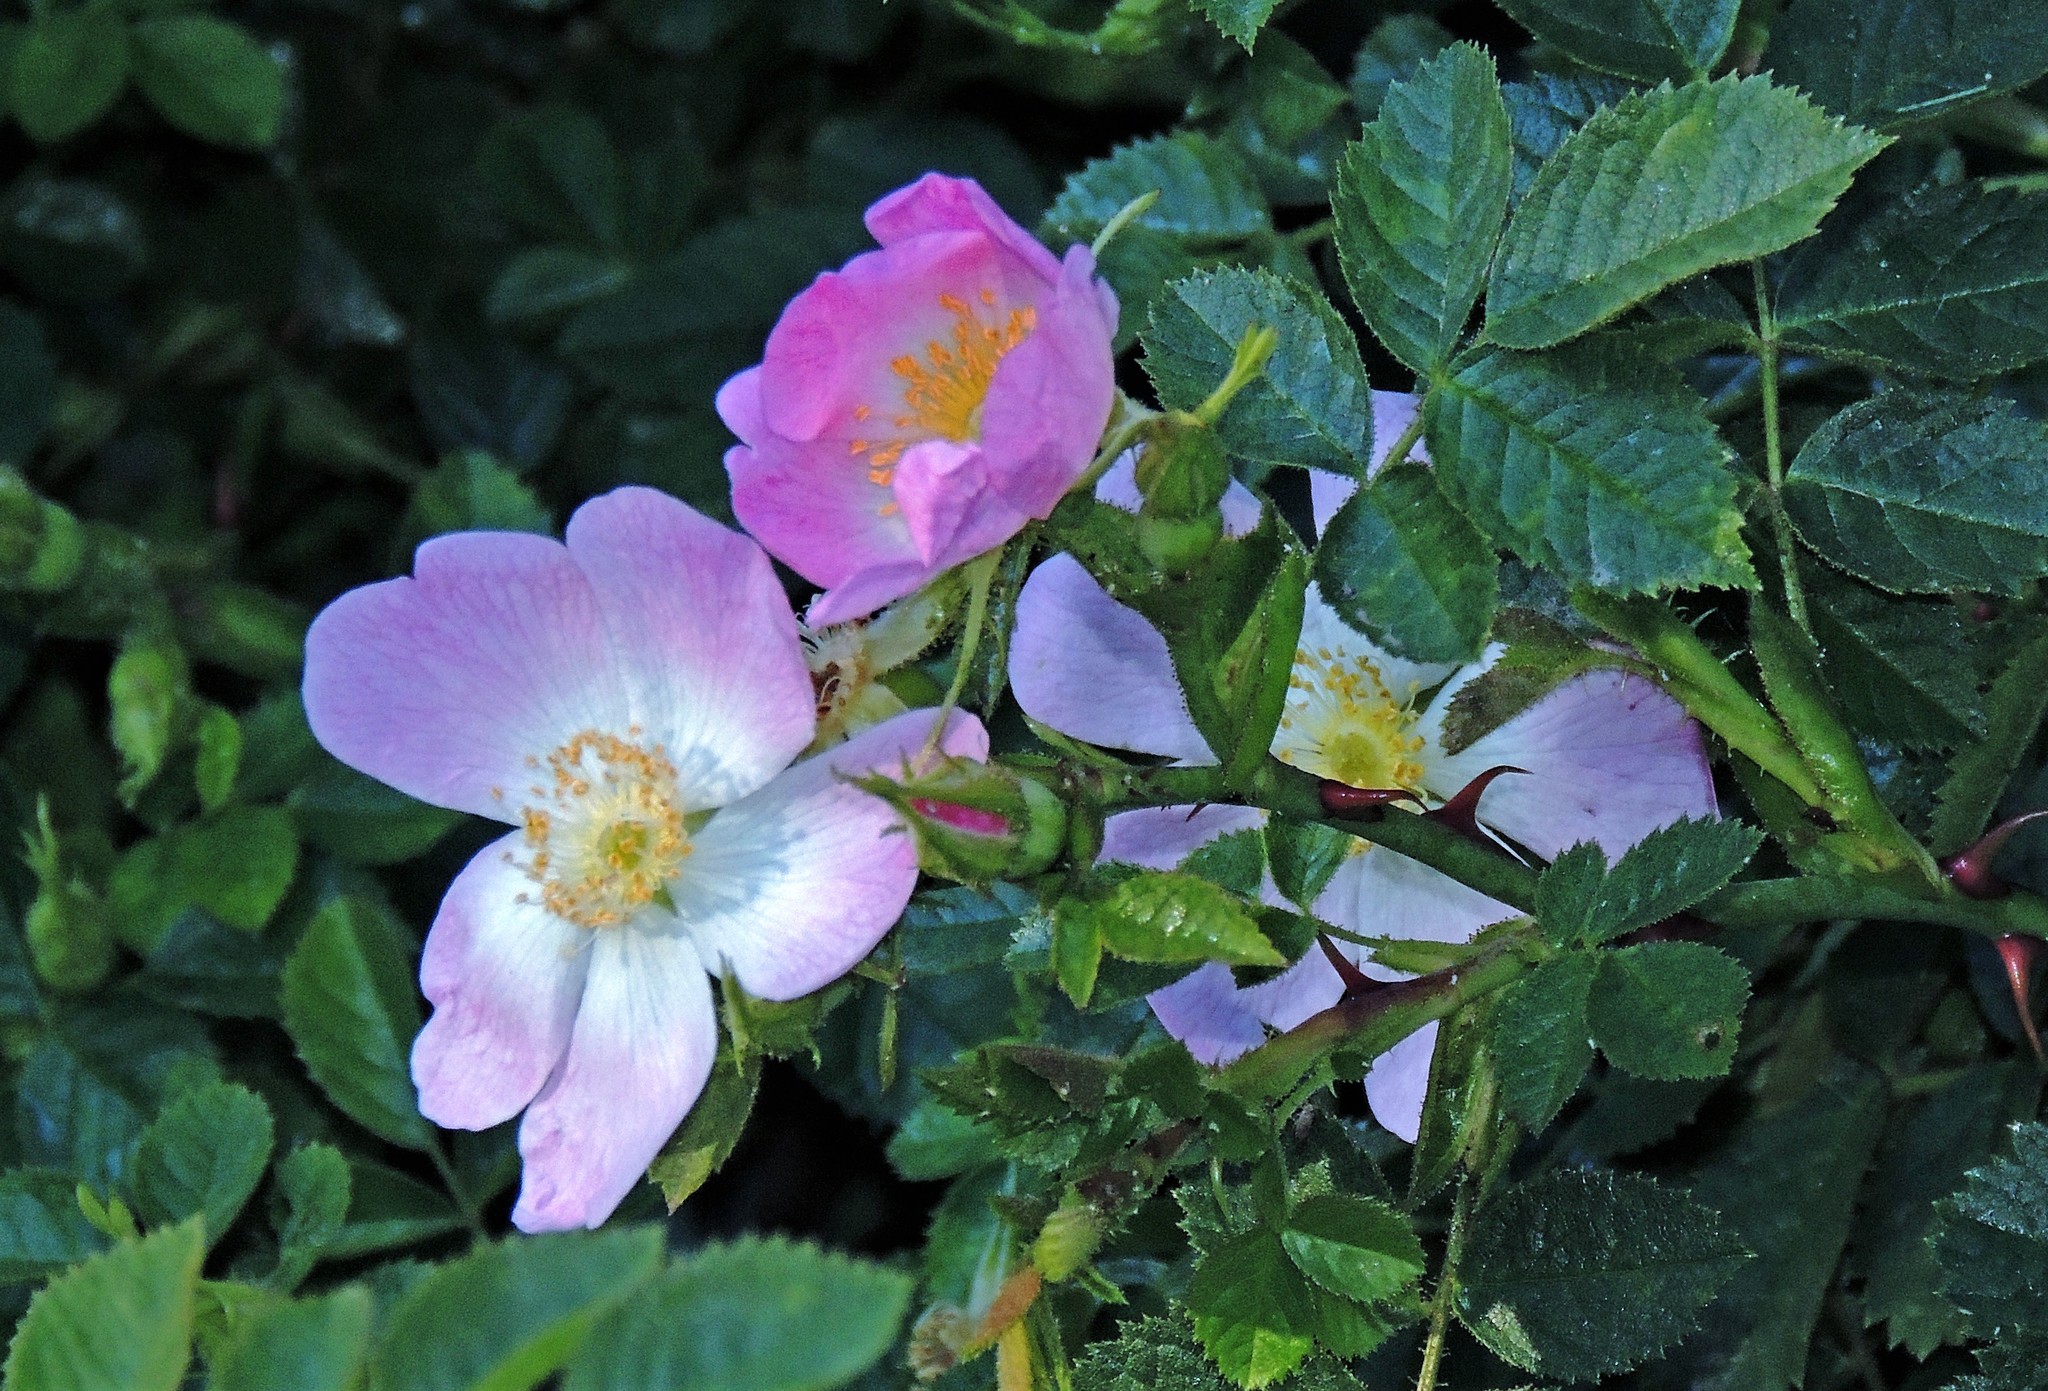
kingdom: Plantae
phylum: Tracheophyta
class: Magnoliopsida
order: Rosales
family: Rosaceae
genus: Rosa
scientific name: Rosa rubiginosa
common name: Sweet-briar
